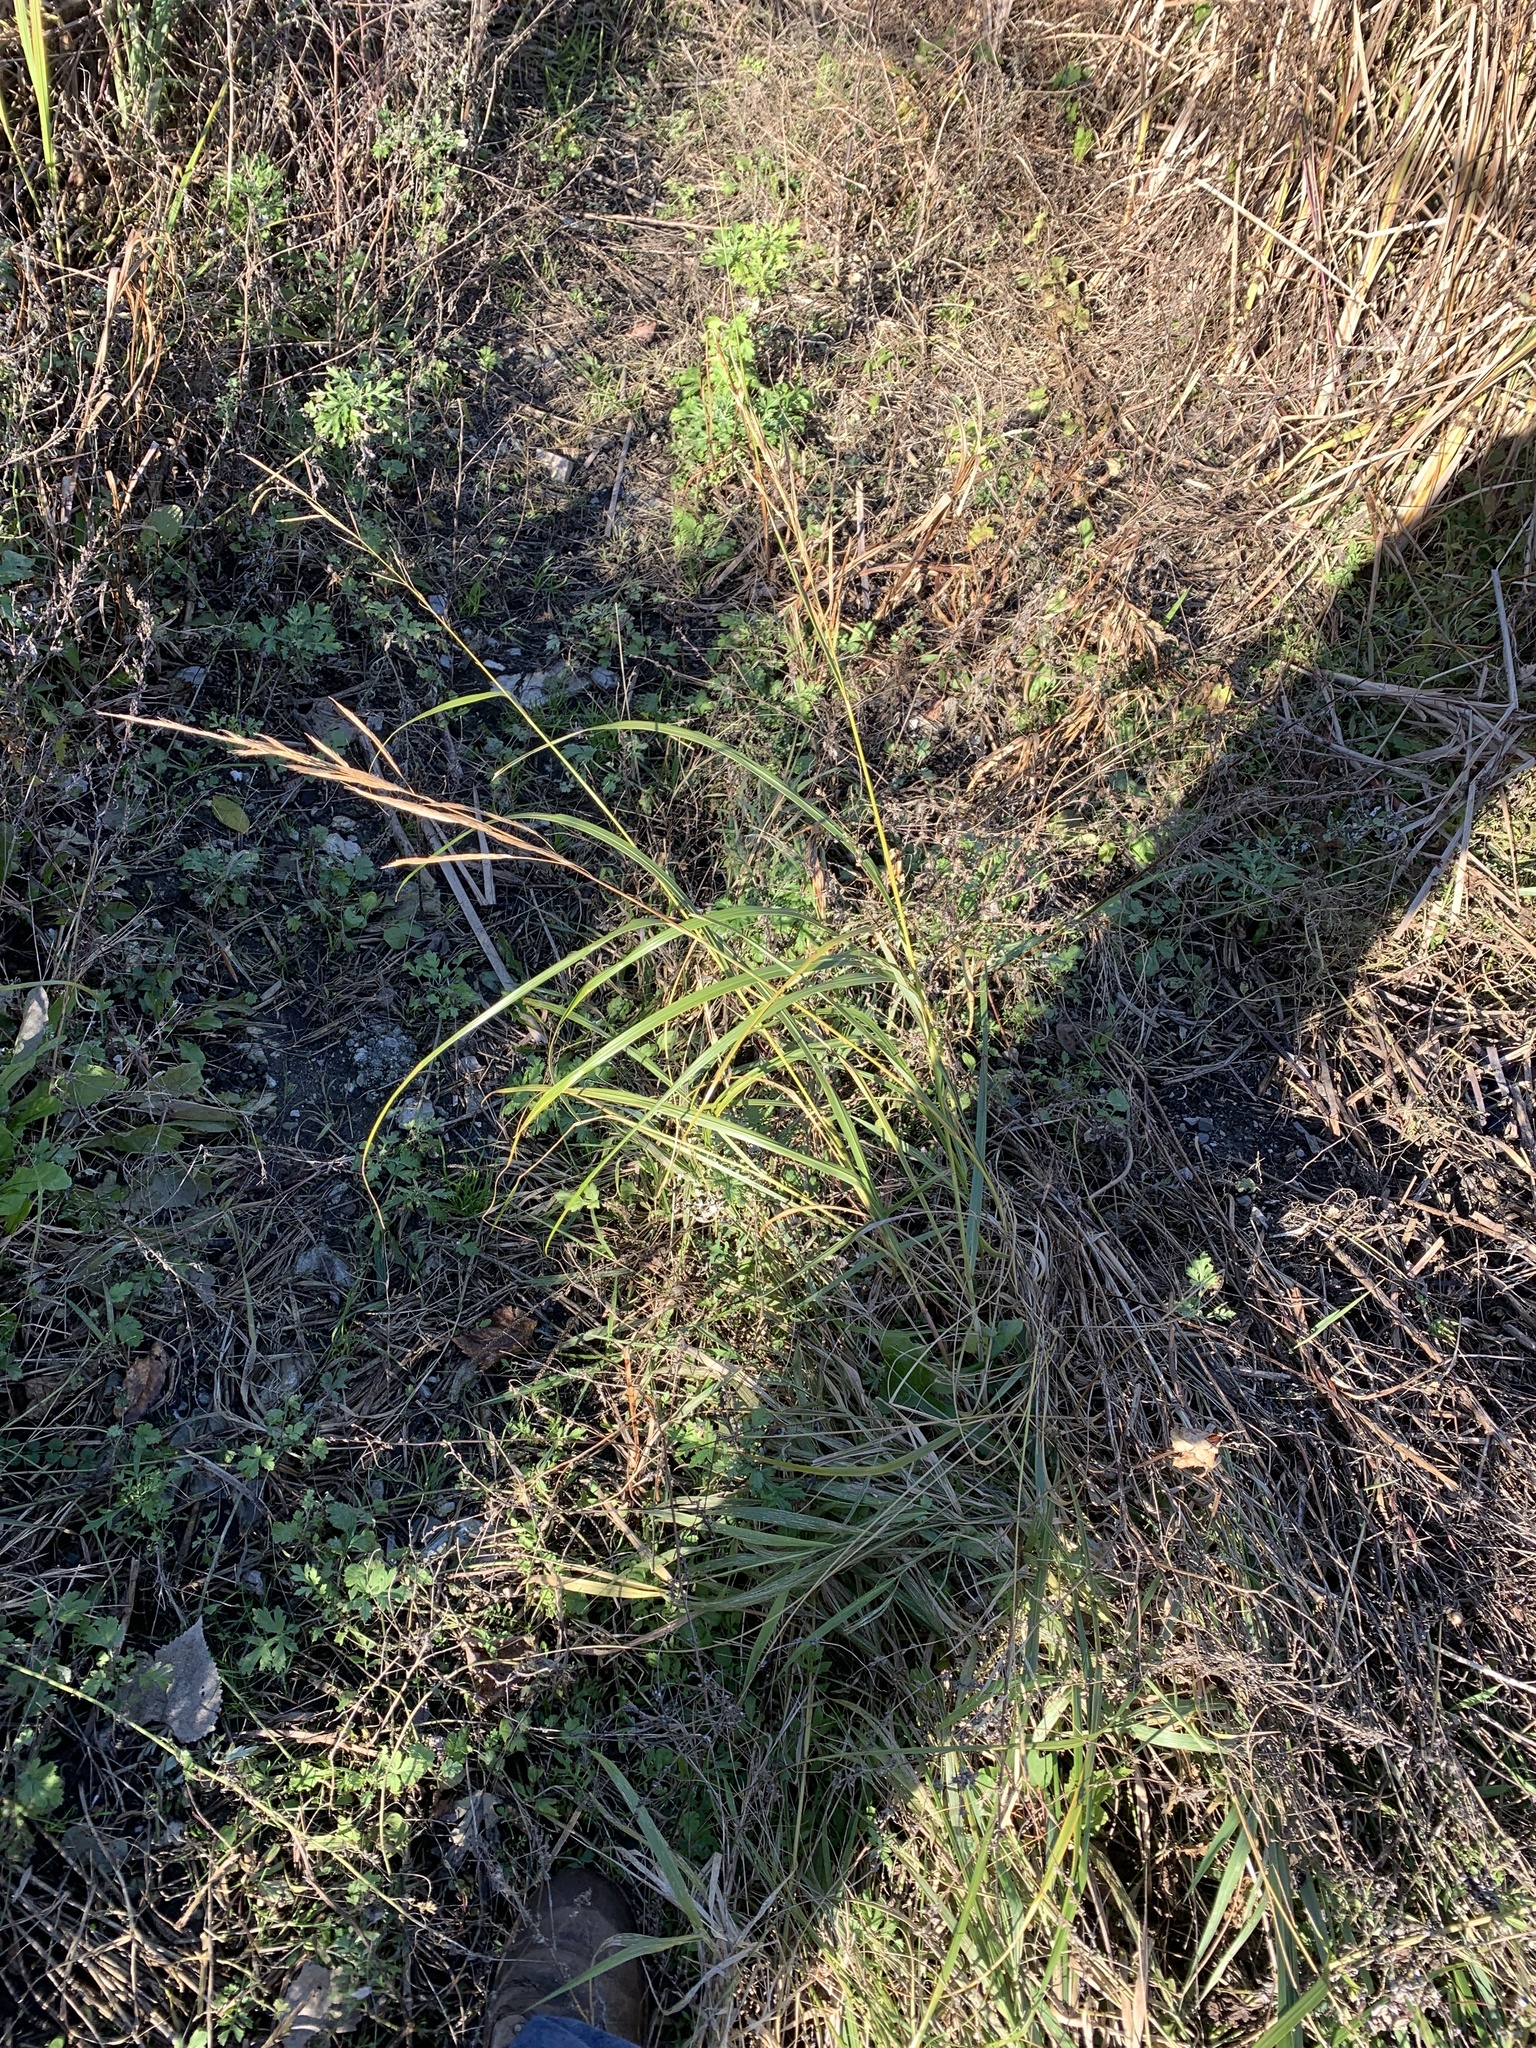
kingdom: Plantae
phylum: Tracheophyta
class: Liliopsida
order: Poales
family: Poaceae
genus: Sporobolus
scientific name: Sporobolus michauxianus
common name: Freshwater cordgrass
